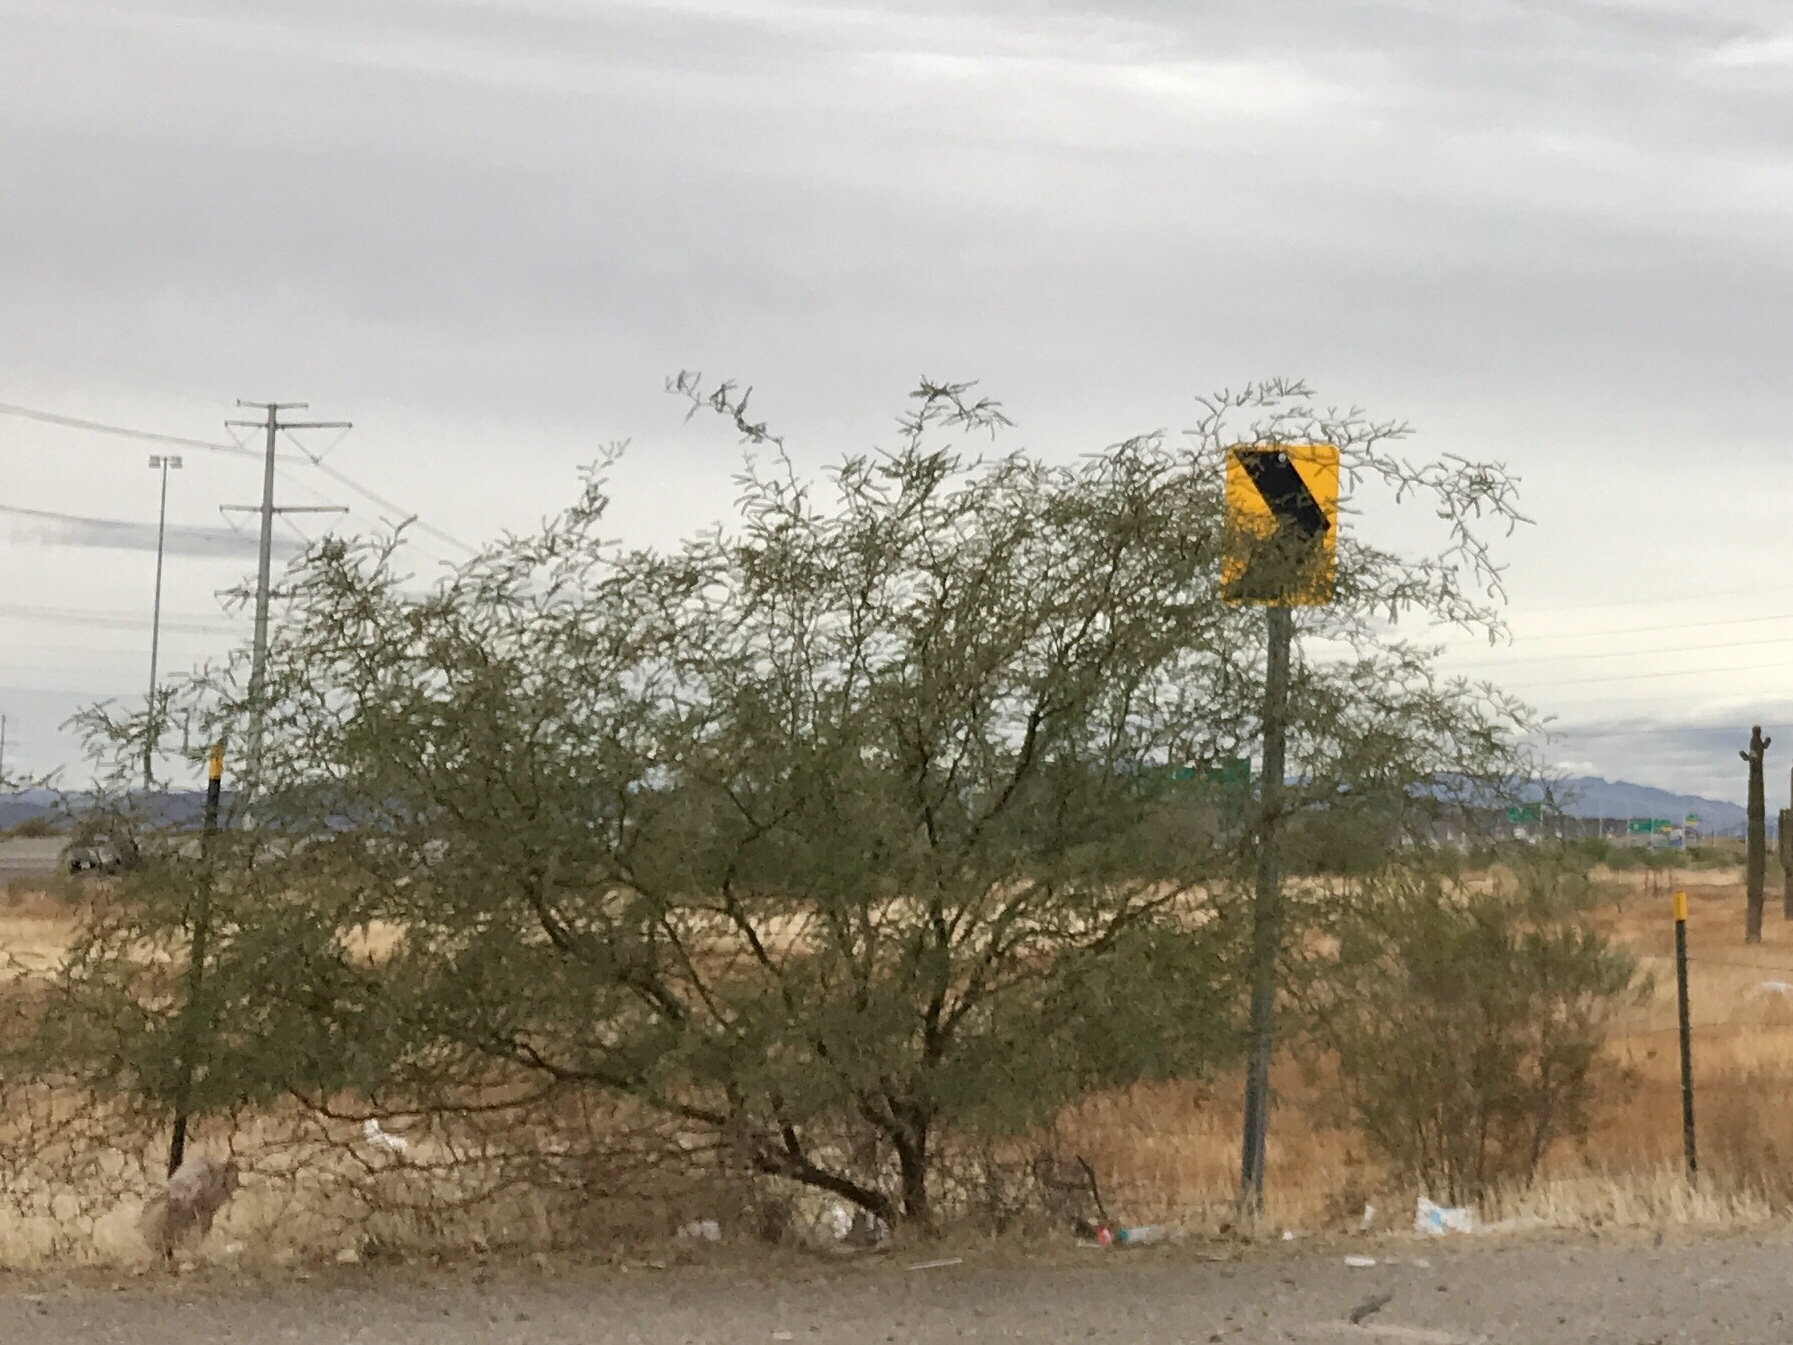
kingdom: Plantae
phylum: Tracheophyta
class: Magnoliopsida
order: Fabales
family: Fabaceae
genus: Prosopis
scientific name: Prosopis glandulosa
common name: Honey mesquite
